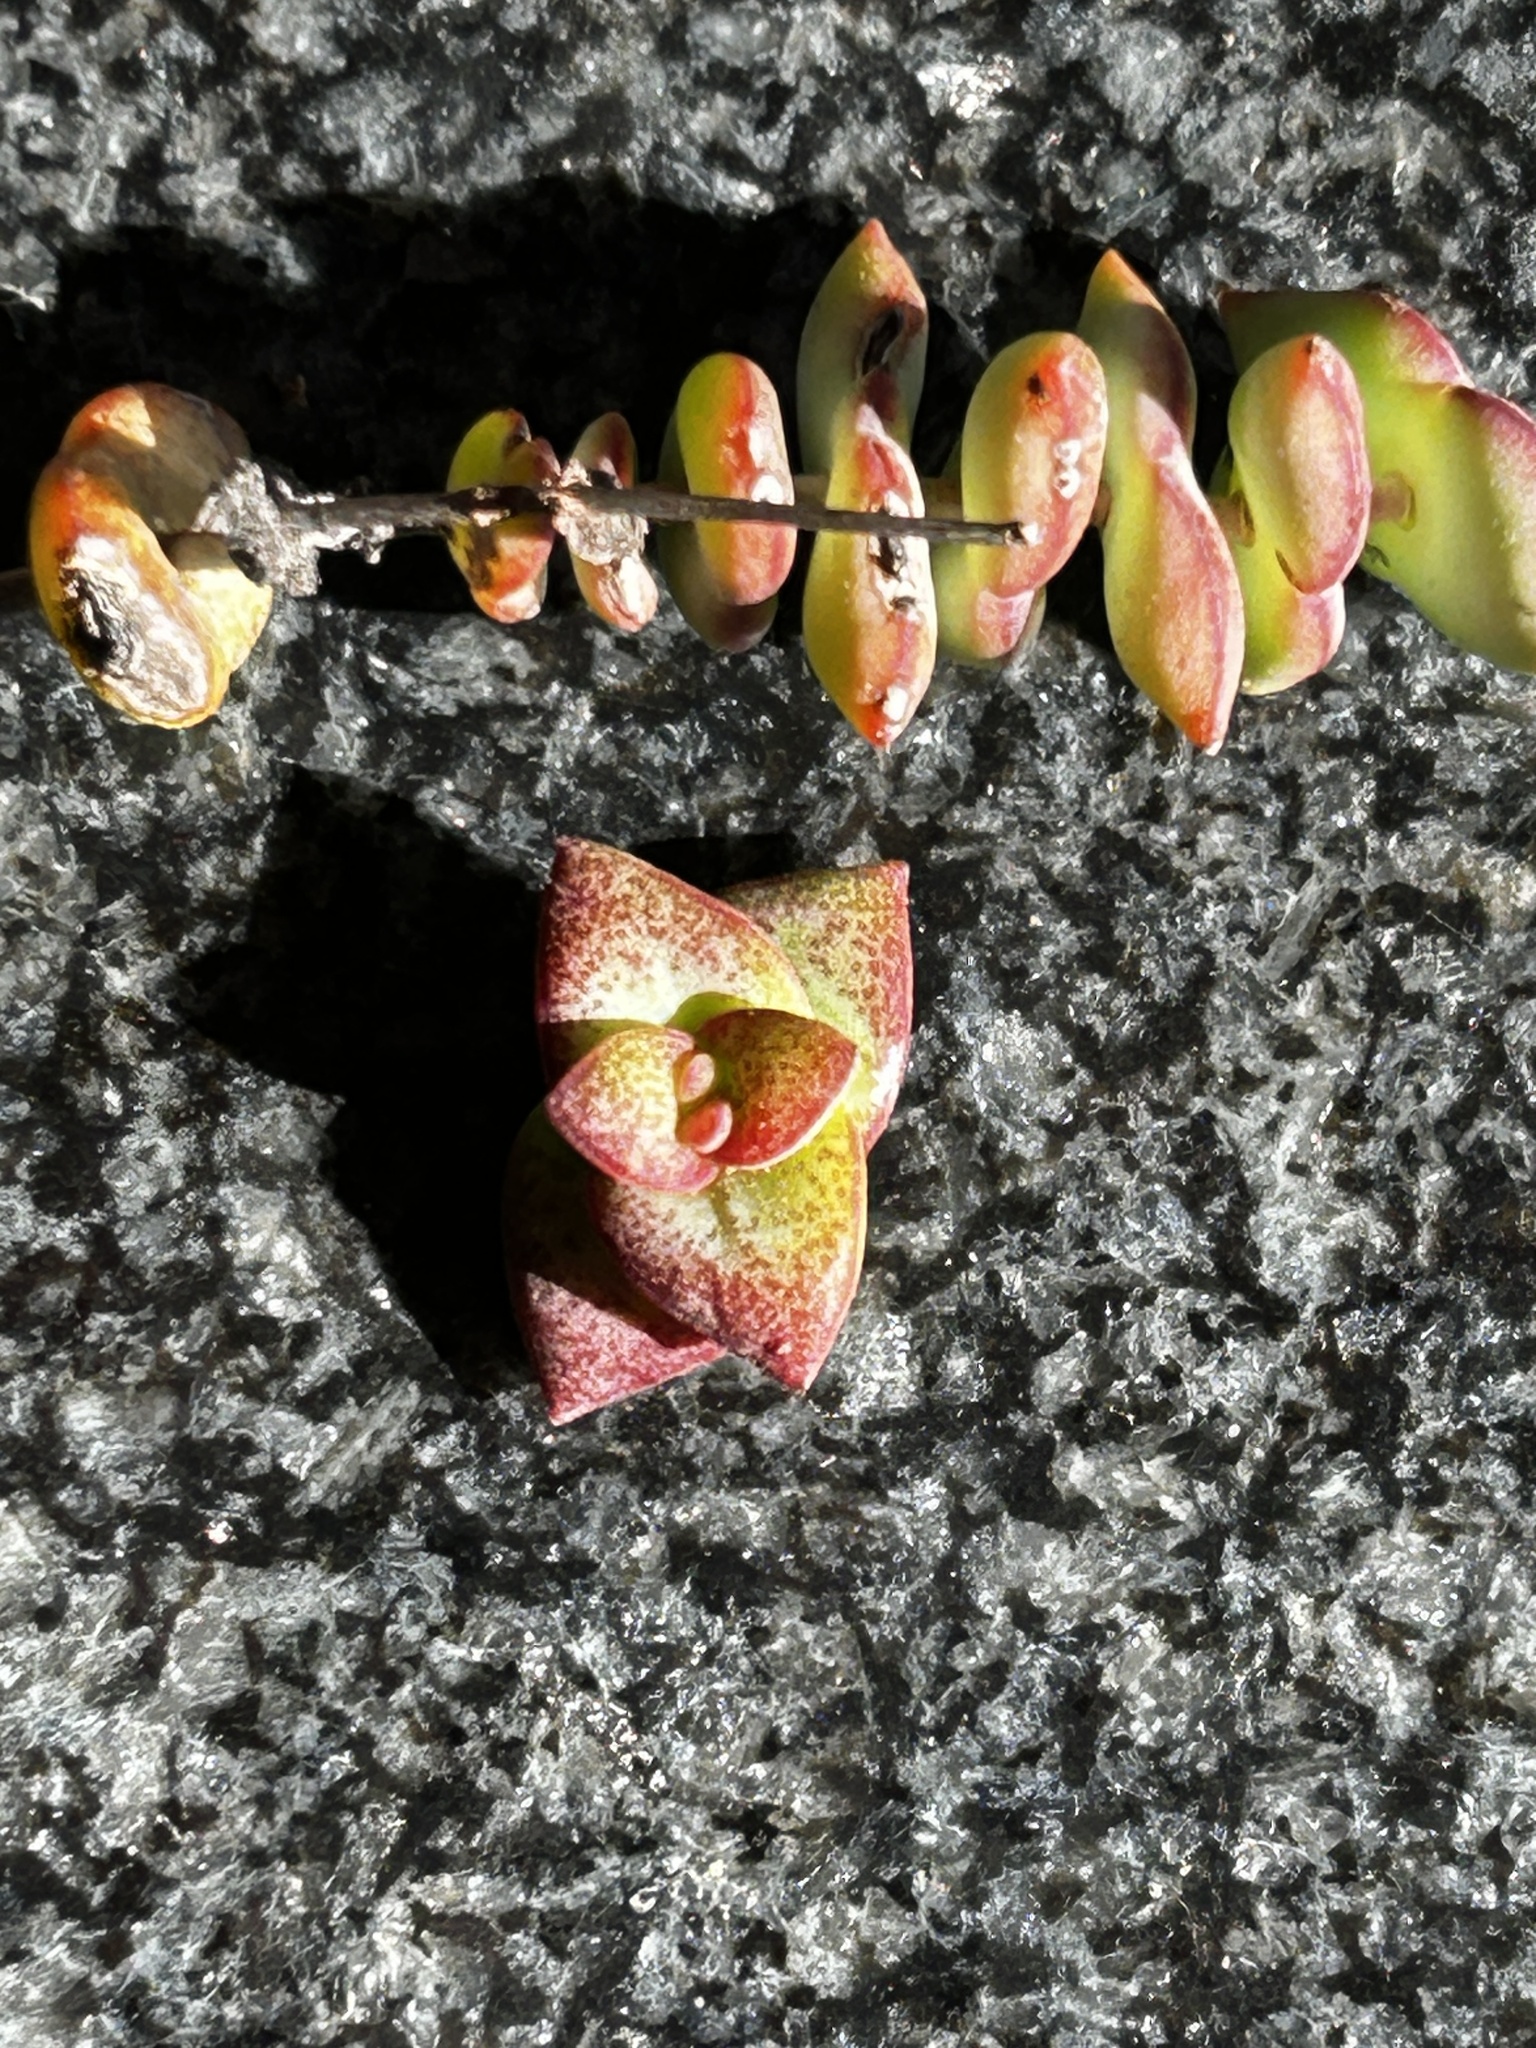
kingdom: Plantae
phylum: Tracheophyta
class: Magnoliopsida
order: Saxifragales
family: Crassulaceae
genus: Crassula
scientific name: Crassula perforata
